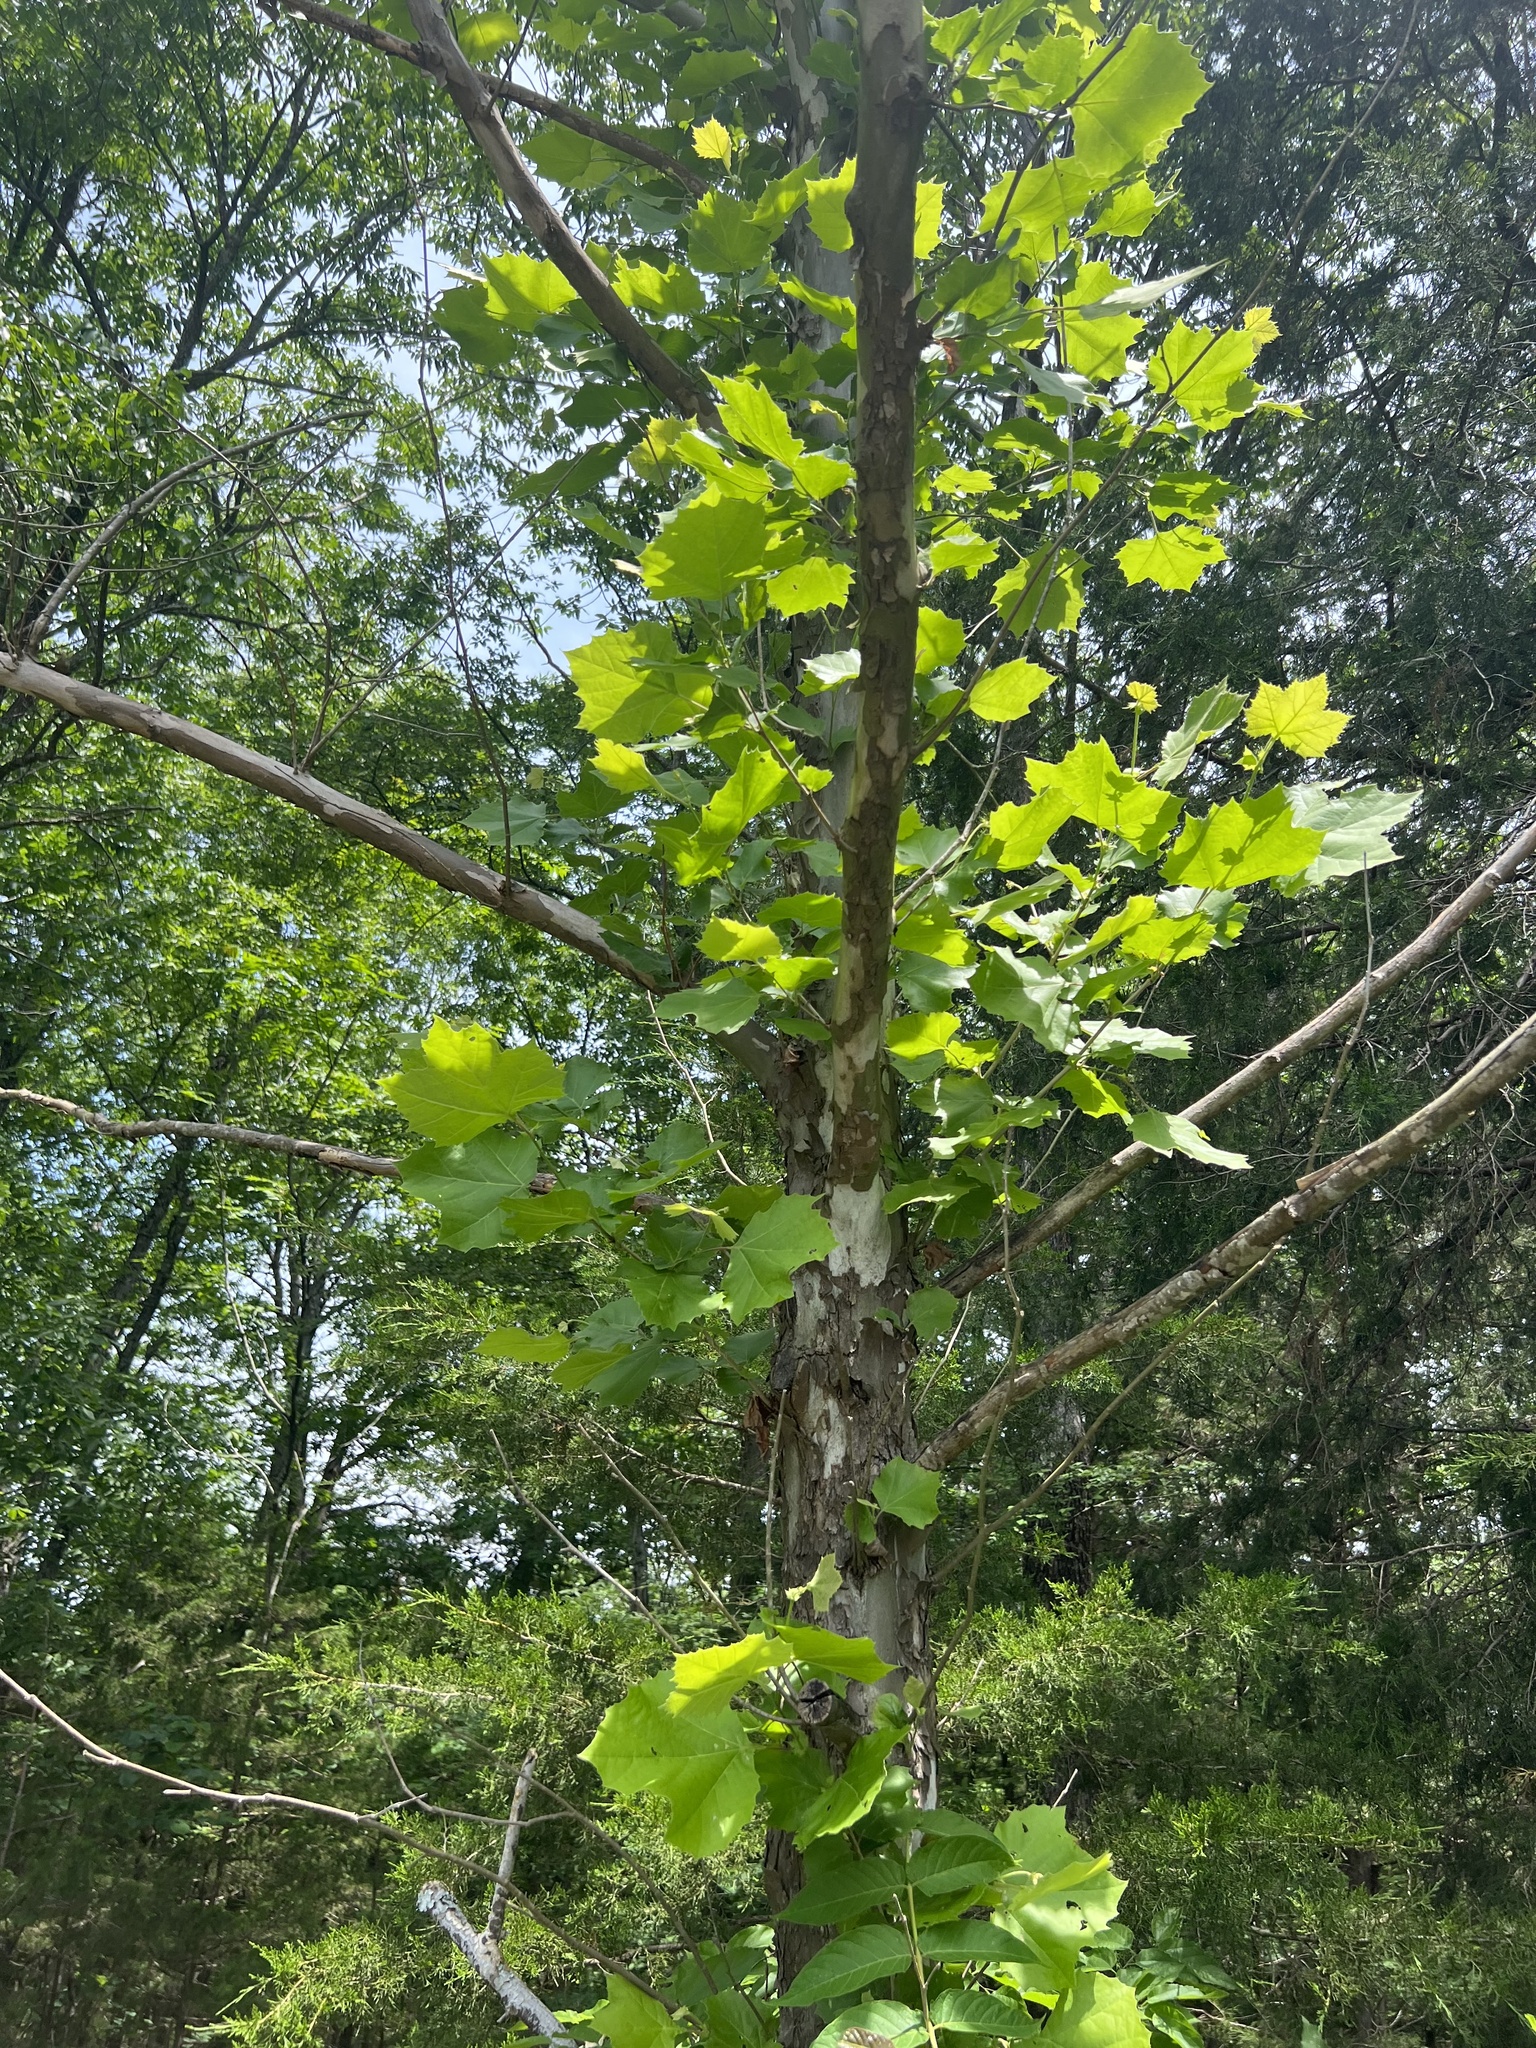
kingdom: Plantae
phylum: Tracheophyta
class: Magnoliopsida
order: Proteales
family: Platanaceae
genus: Platanus
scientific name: Platanus occidentalis
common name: American sycamore
